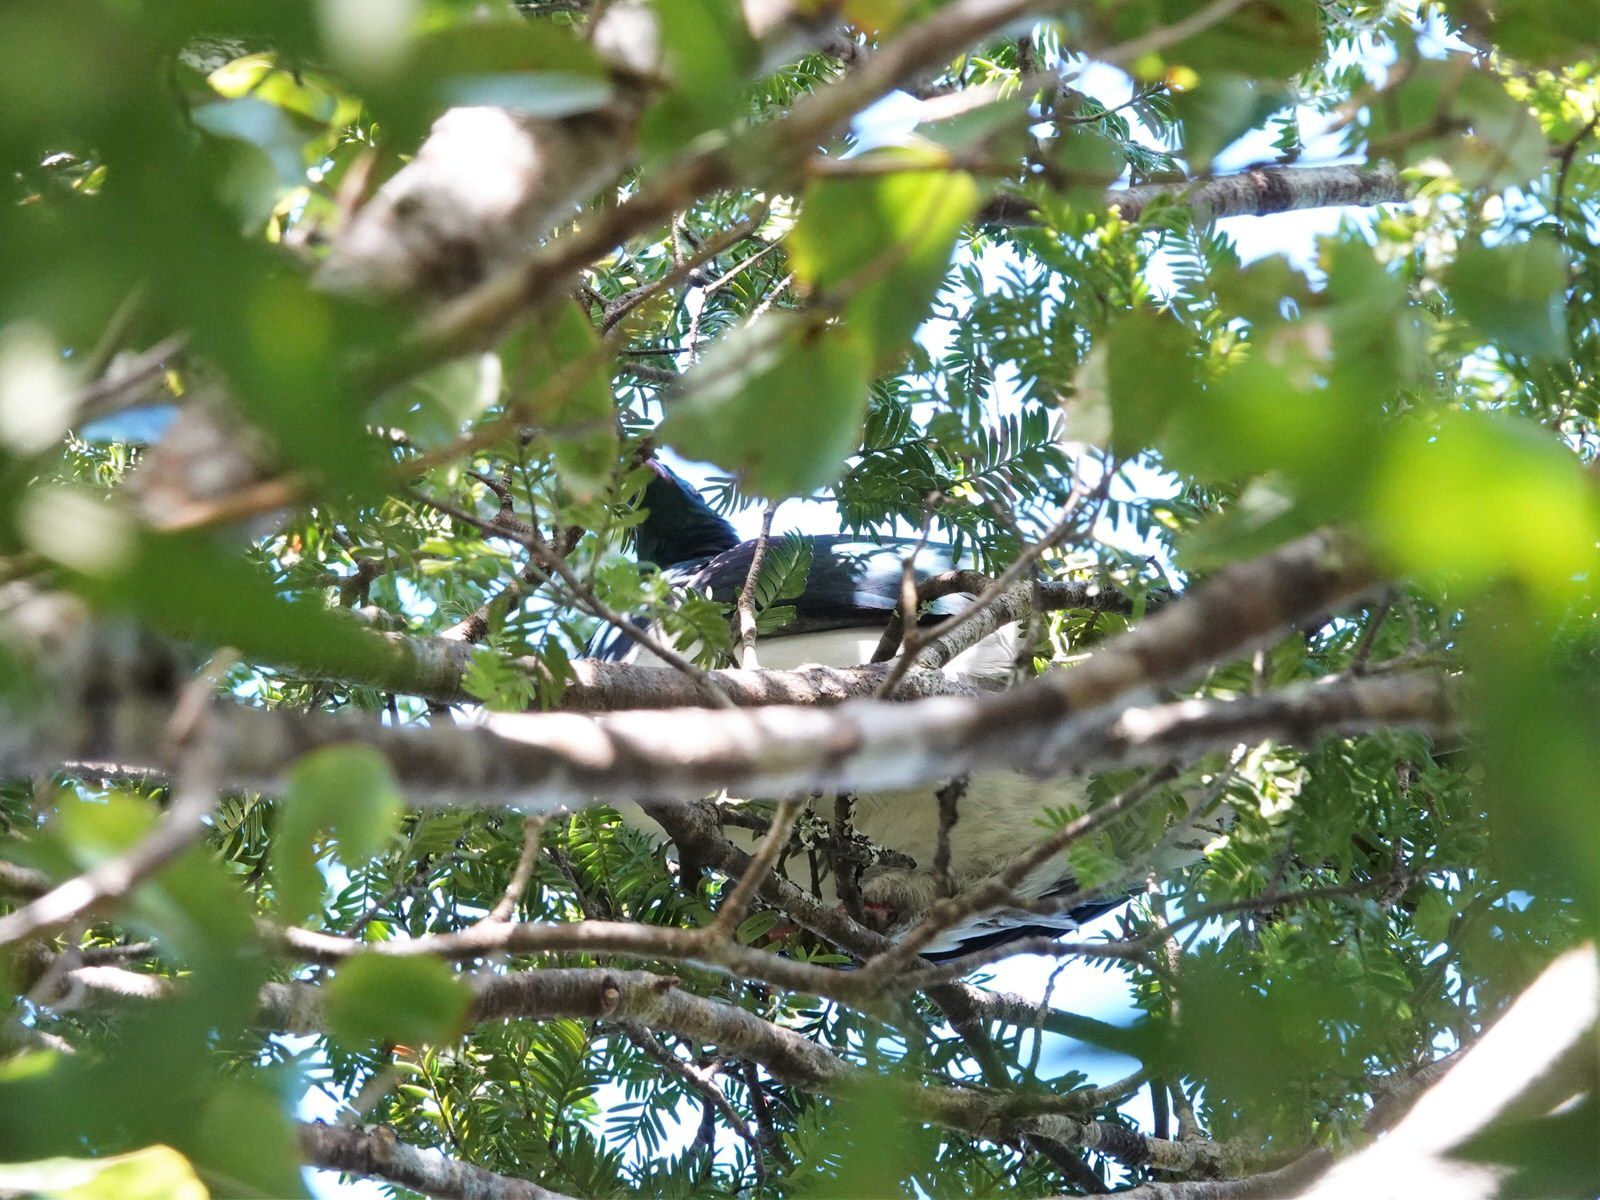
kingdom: Animalia
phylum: Chordata
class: Aves
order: Columbiformes
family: Columbidae
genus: Hemiphaga
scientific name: Hemiphaga novaeseelandiae
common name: New zealand pigeon
